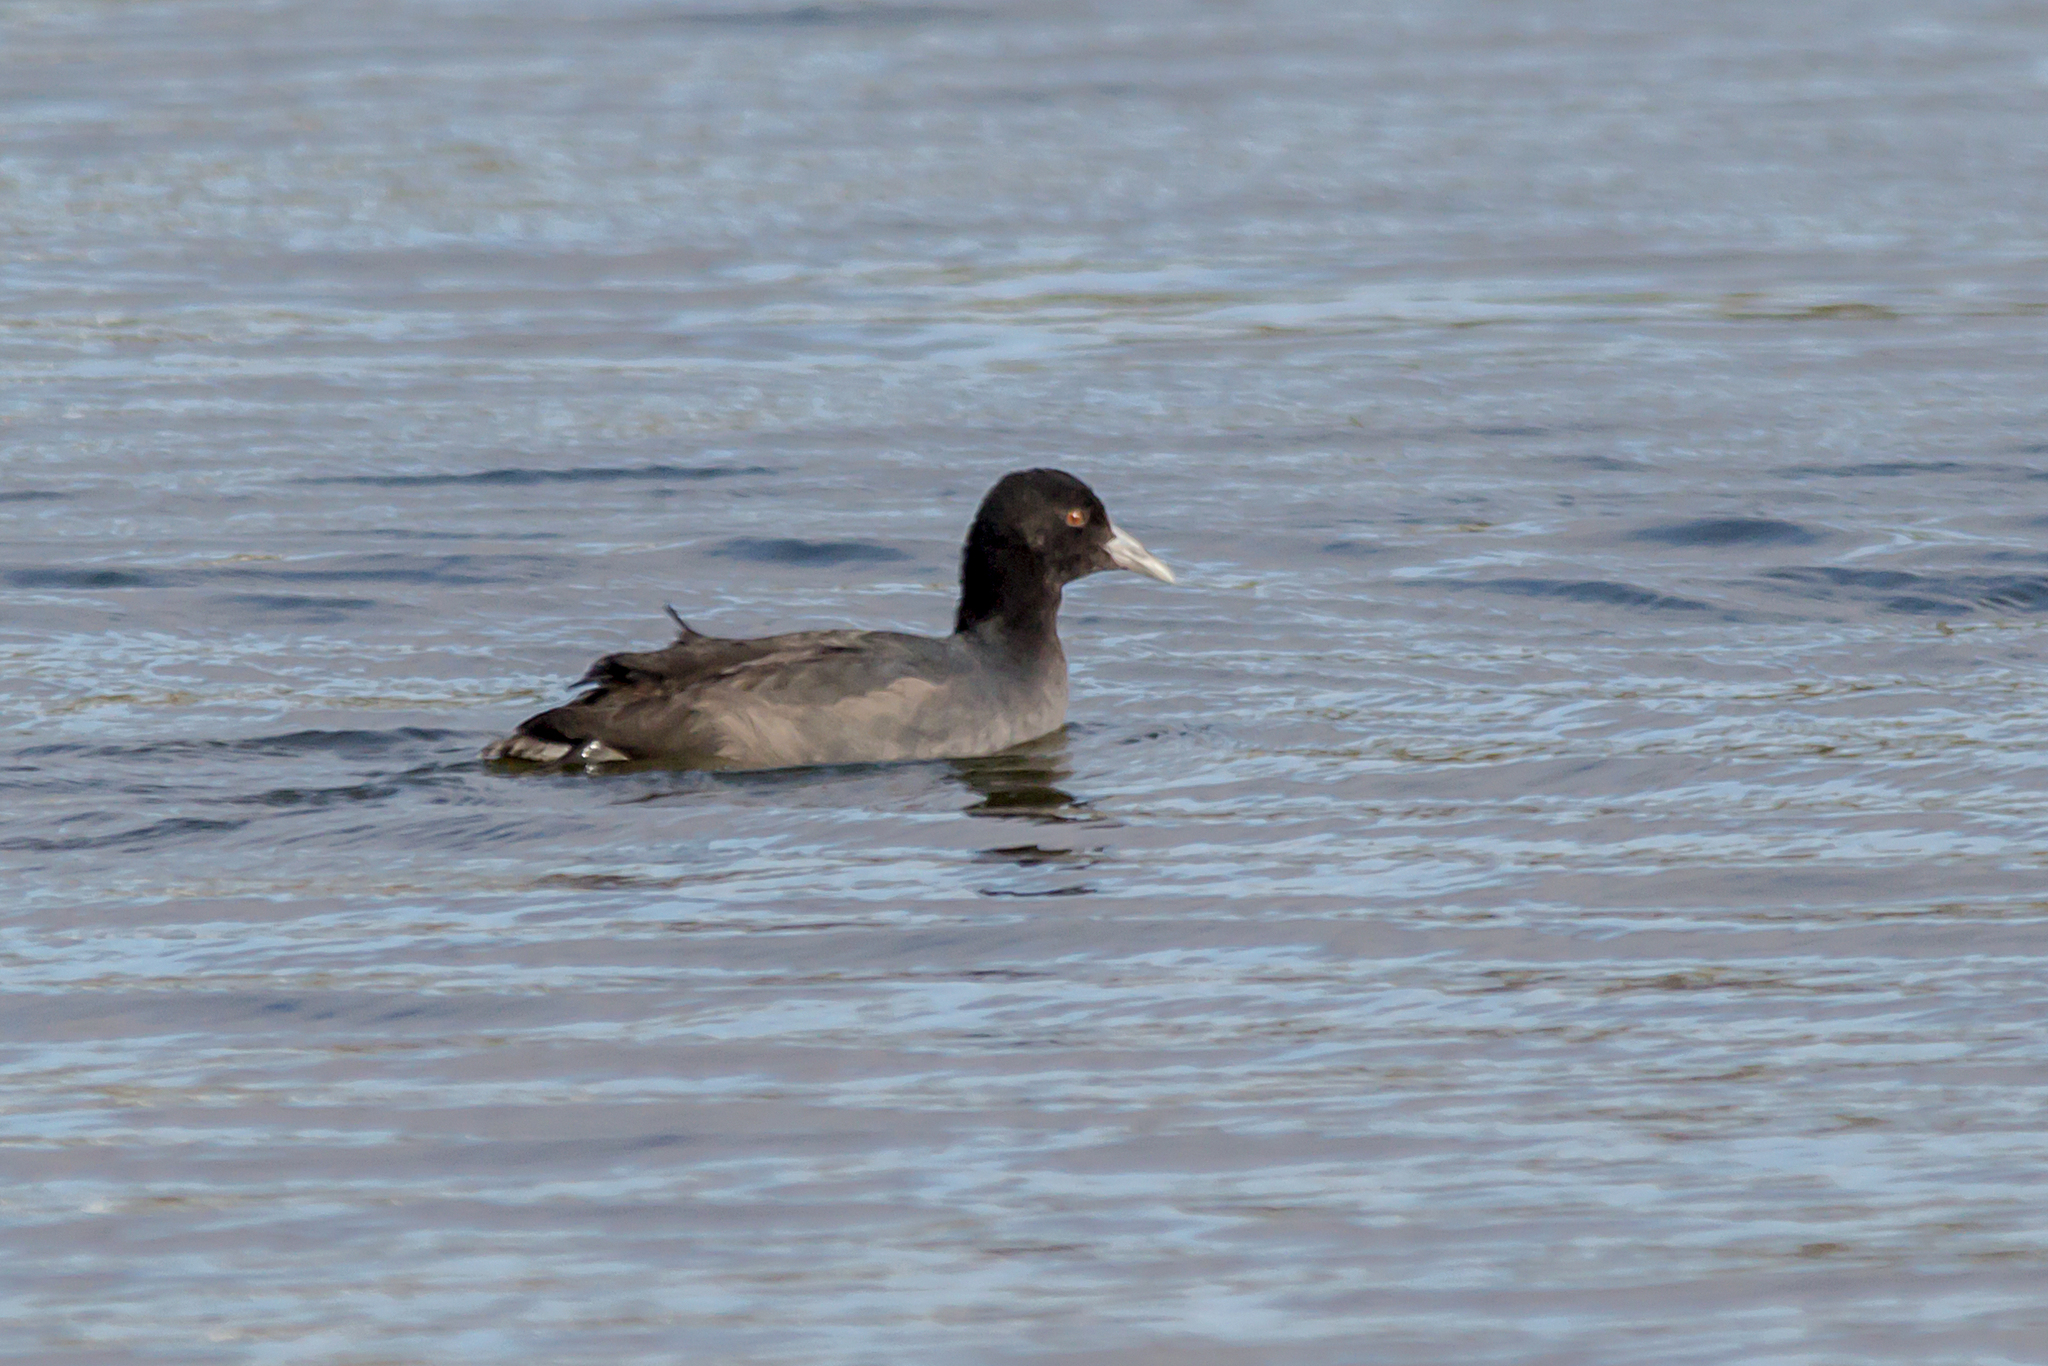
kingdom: Animalia
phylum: Chordata
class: Aves
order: Gruiformes
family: Rallidae
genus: Fulica
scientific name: Fulica atra
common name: Eurasian coot
